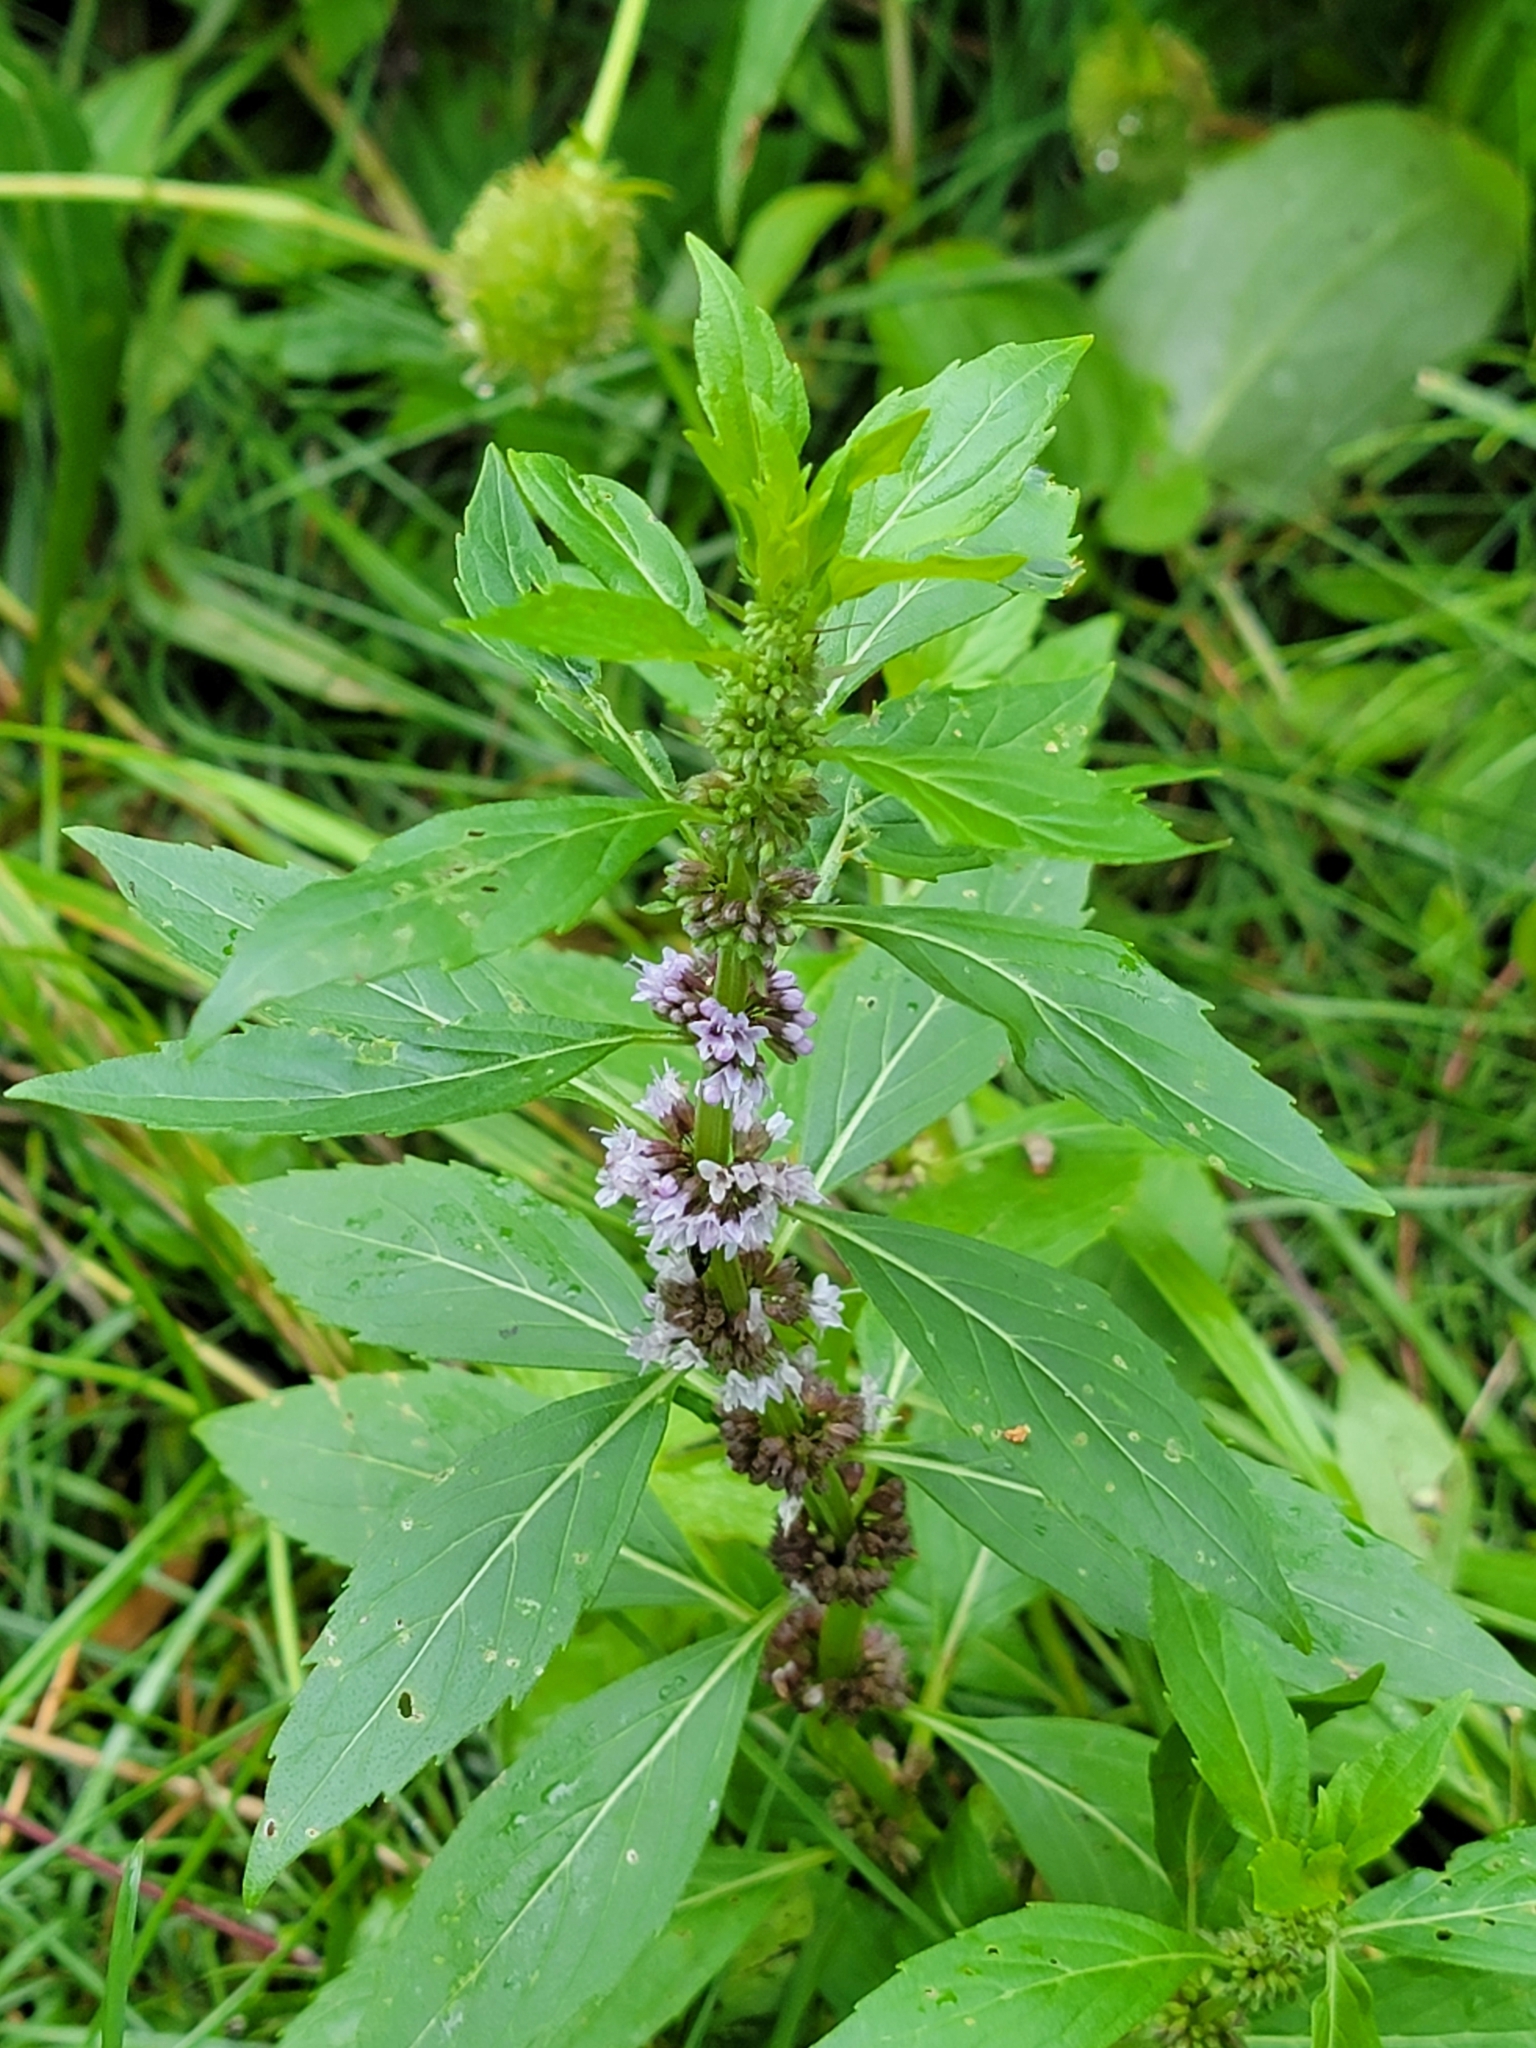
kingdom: Plantae
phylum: Tracheophyta
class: Magnoliopsida
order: Lamiales
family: Lamiaceae
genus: Mentha
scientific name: Mentha canadensis
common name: American corn mint
